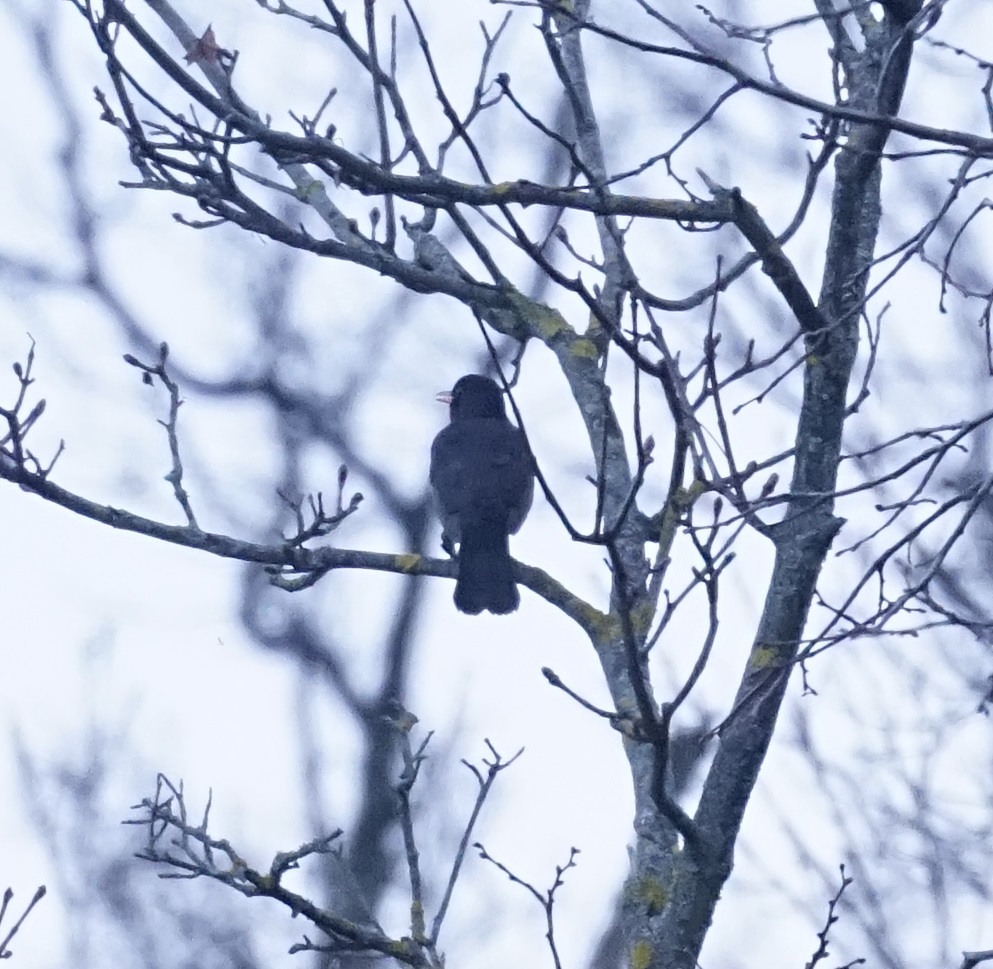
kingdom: Animalia
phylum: Chordata
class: Aves
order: Passeriformes
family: Turdidae
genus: Turdus
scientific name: Turdus merula
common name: Common blackbird
